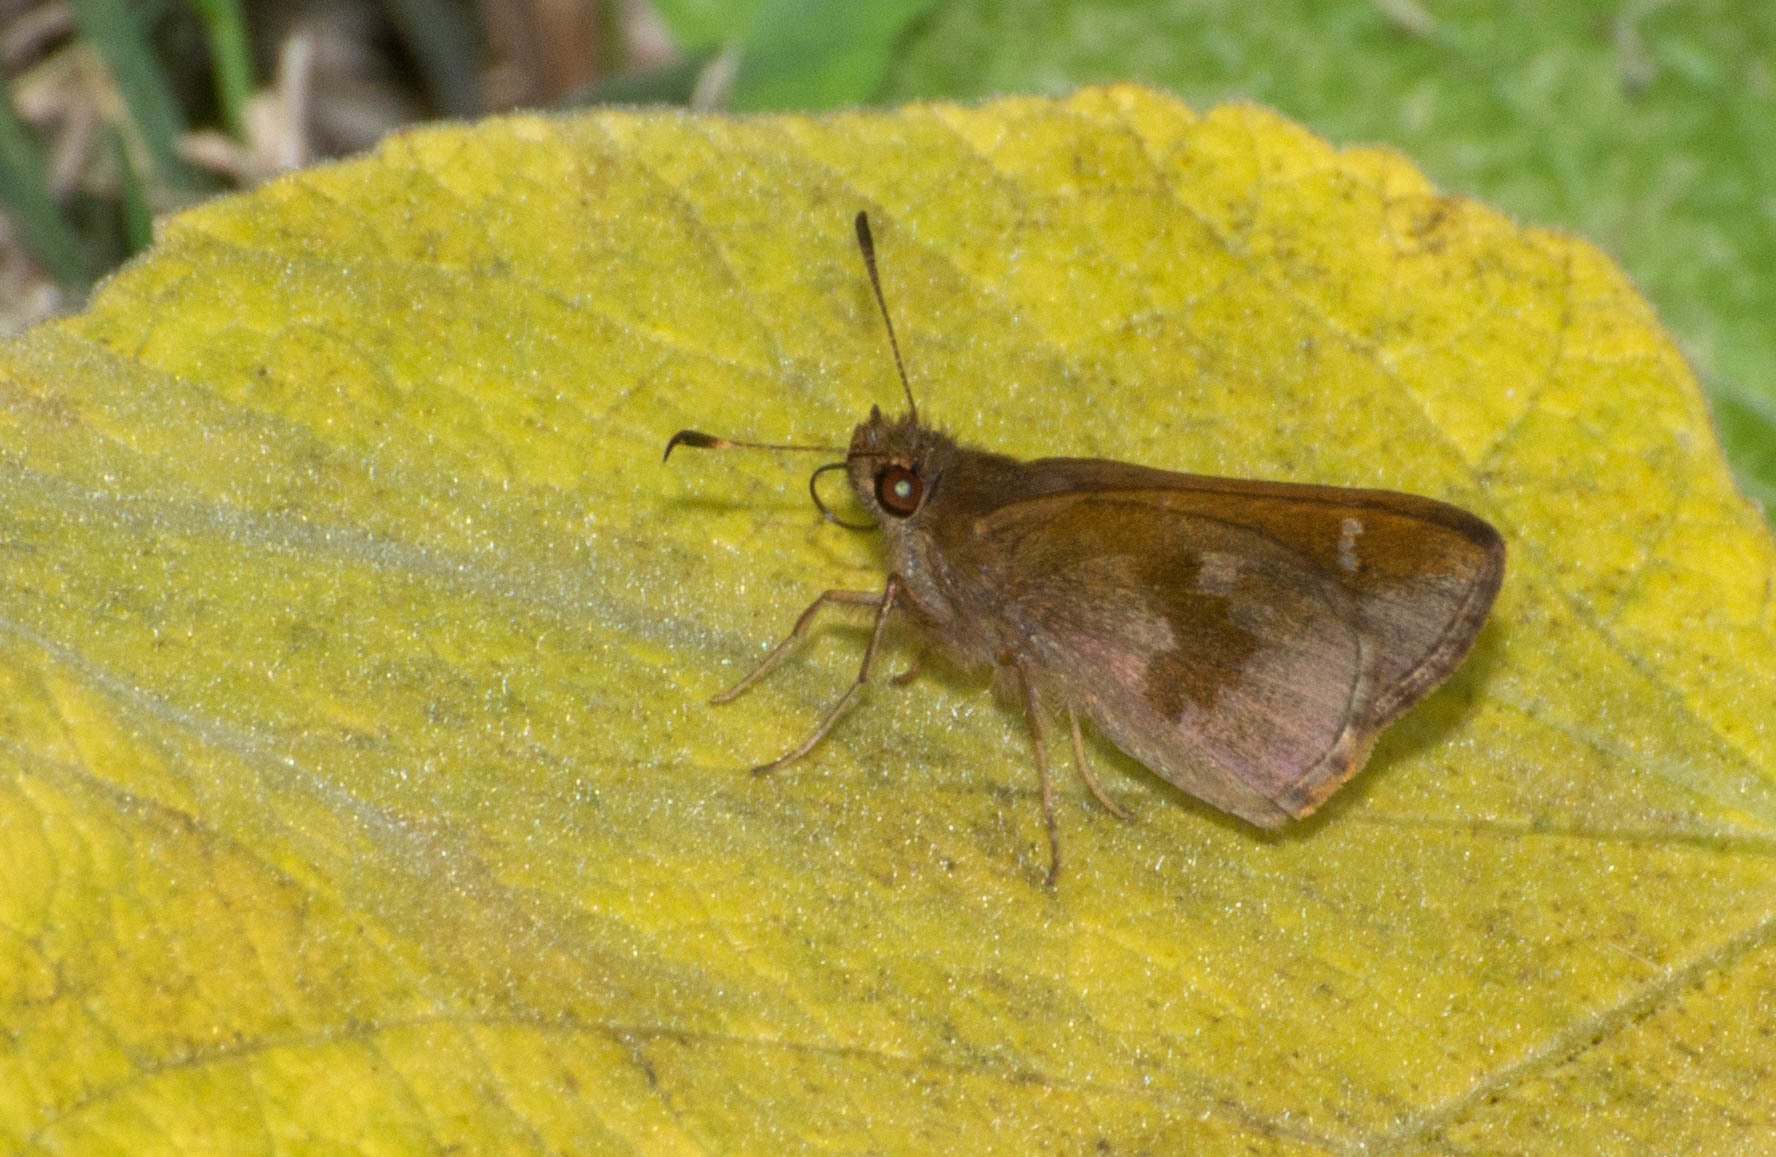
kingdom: Animalia
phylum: Arthropoda
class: Insecta
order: Lepidoptera
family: Hesperiidae
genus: Cymaenes
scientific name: Cymaenes
